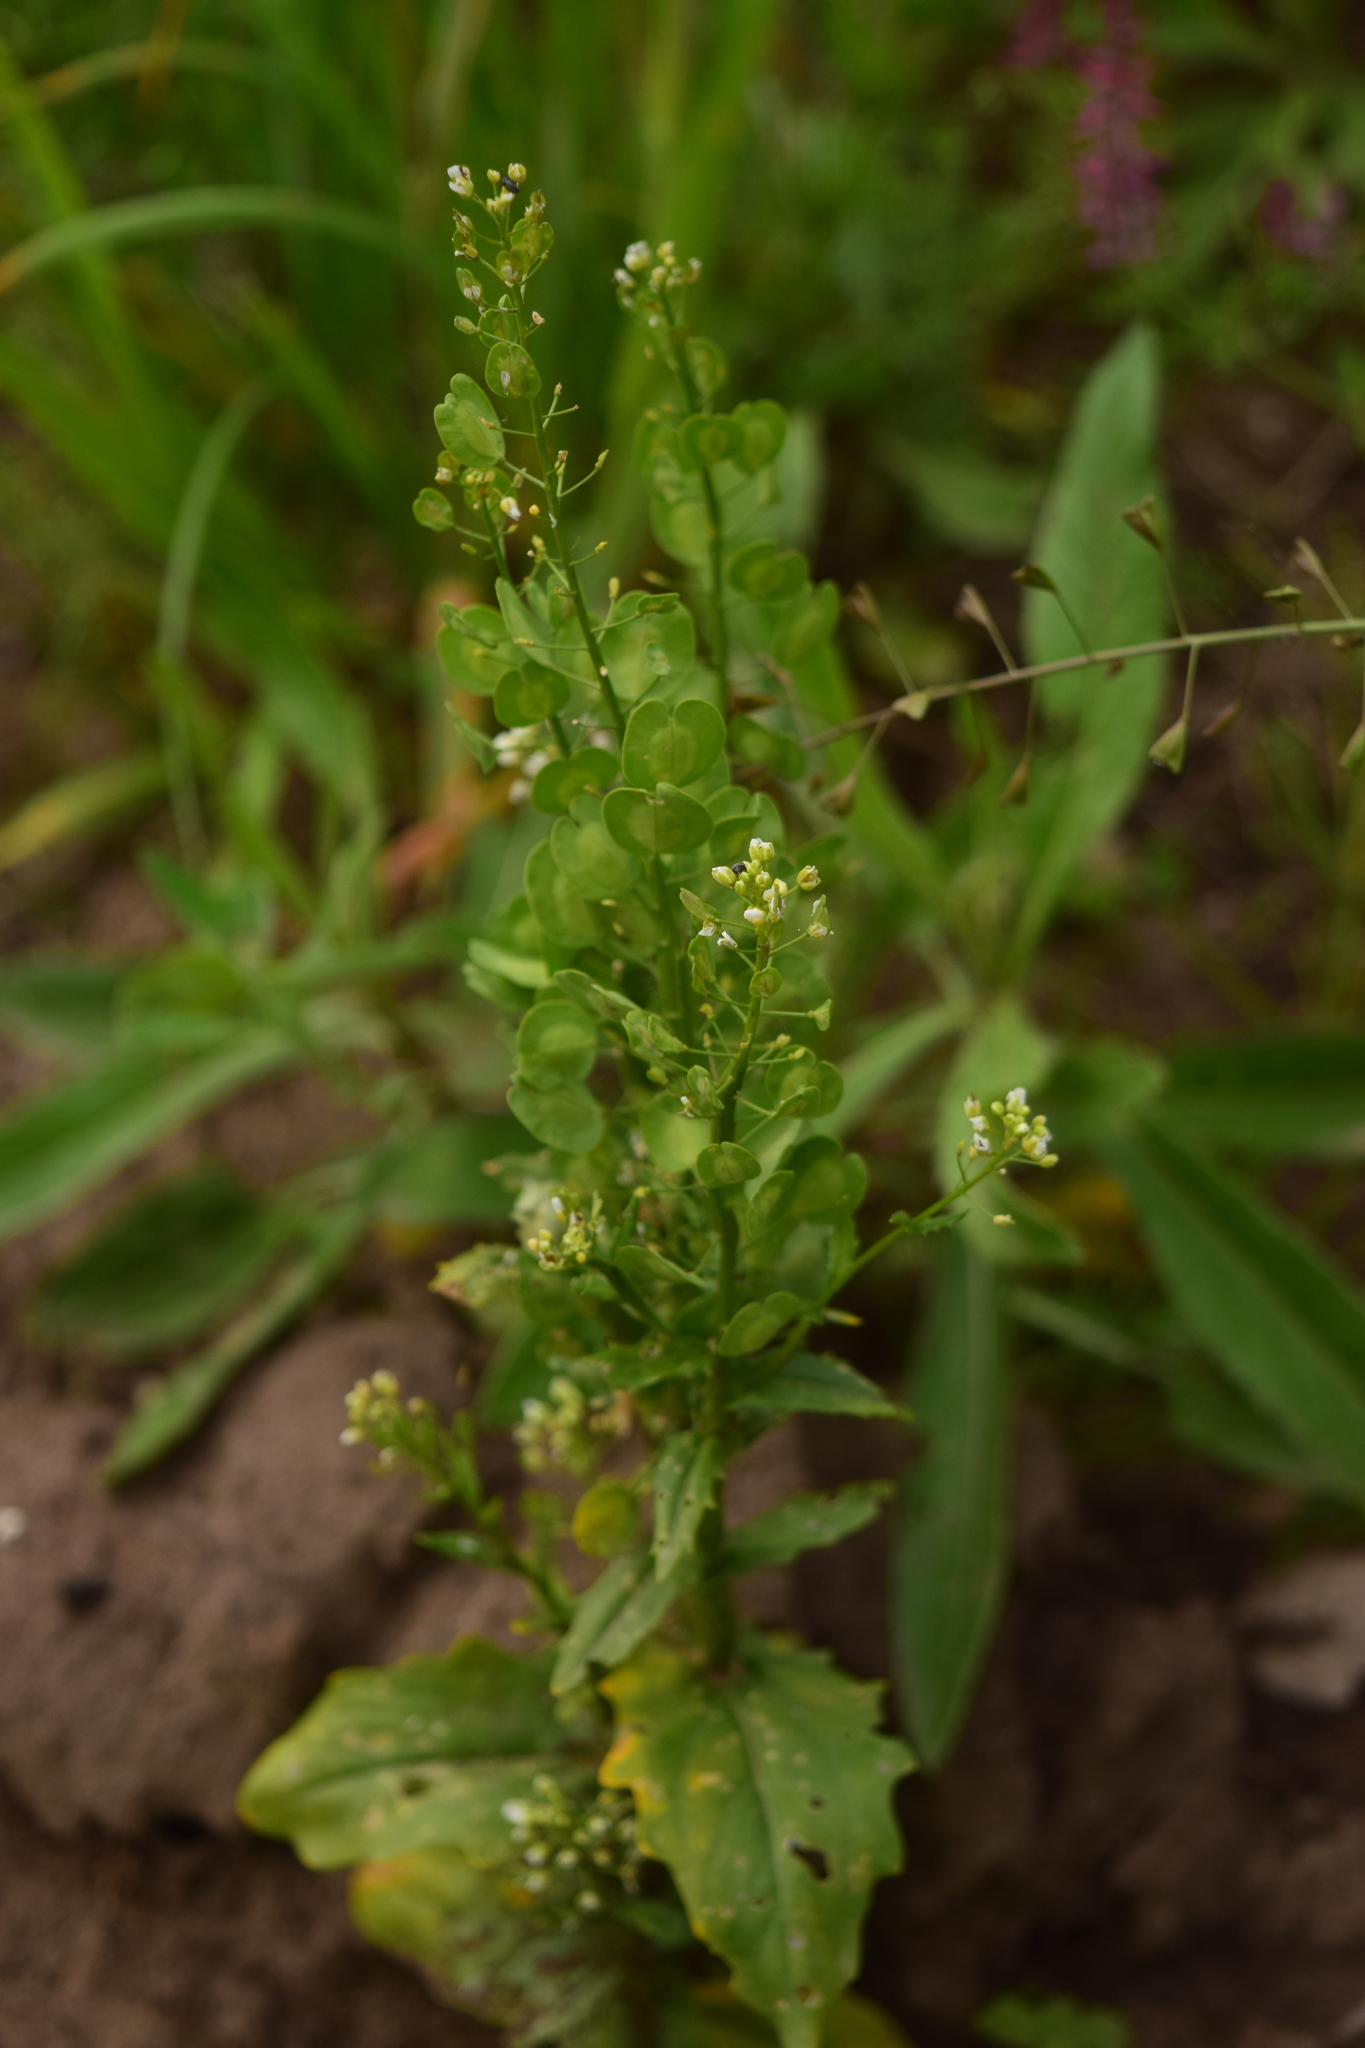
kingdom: Plantae
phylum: Tracheophyta
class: Magnoliopsida
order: Brassicales
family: Brassicaceae
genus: Thlaspi
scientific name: Thlaspi arvense
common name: Field pennycress
